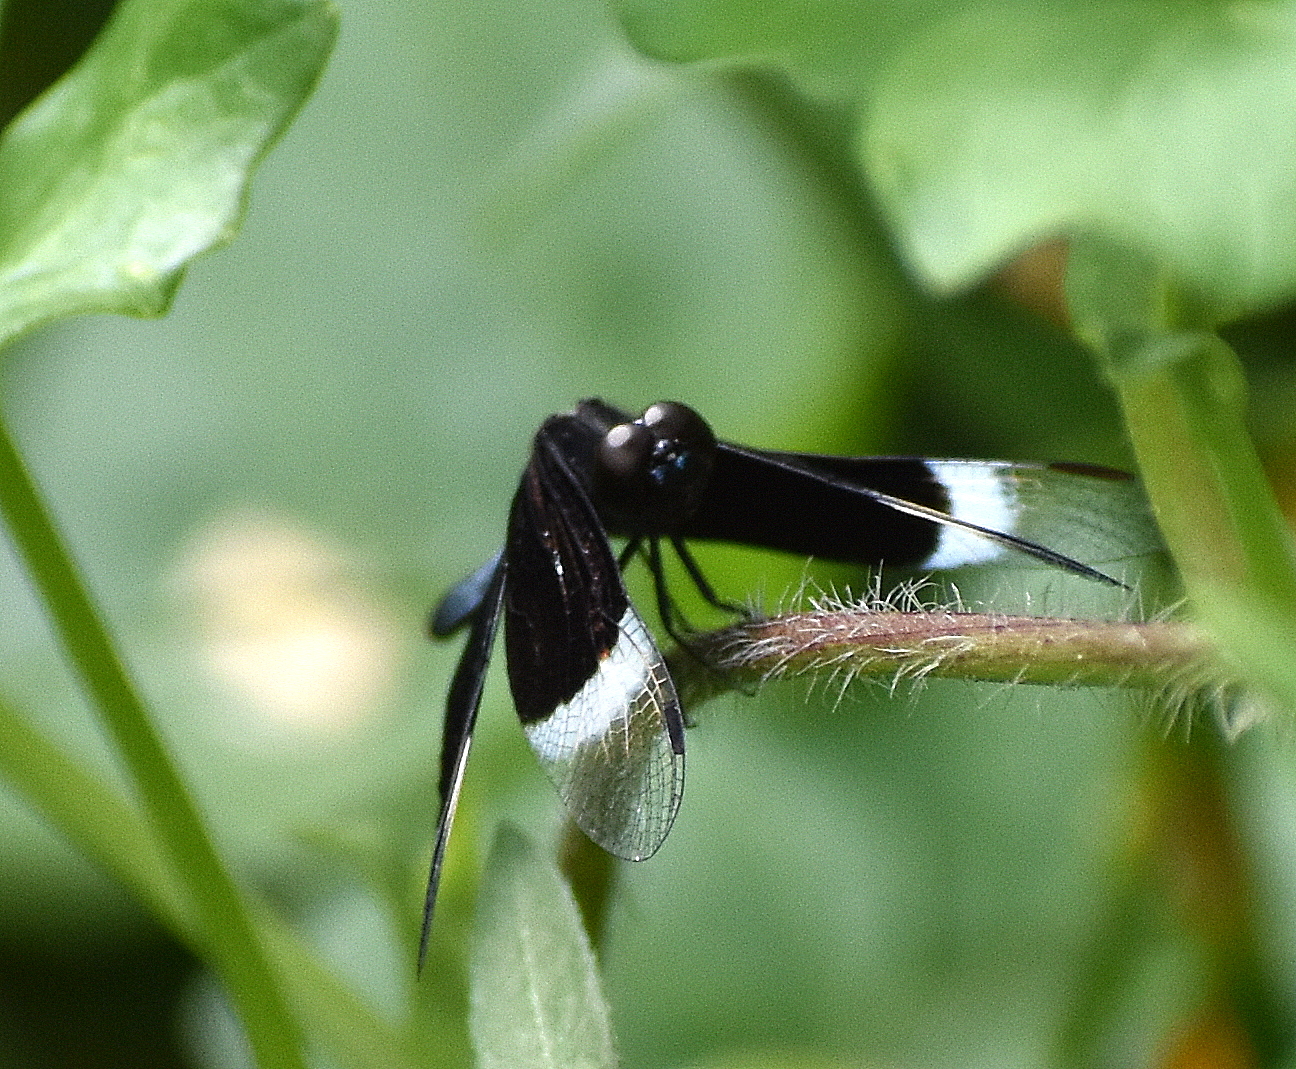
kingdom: Animalia
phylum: Arthropoda
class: Insecta
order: Odonata
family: Libellulidae
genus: Neurothemis
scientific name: Neurothemis tullia
